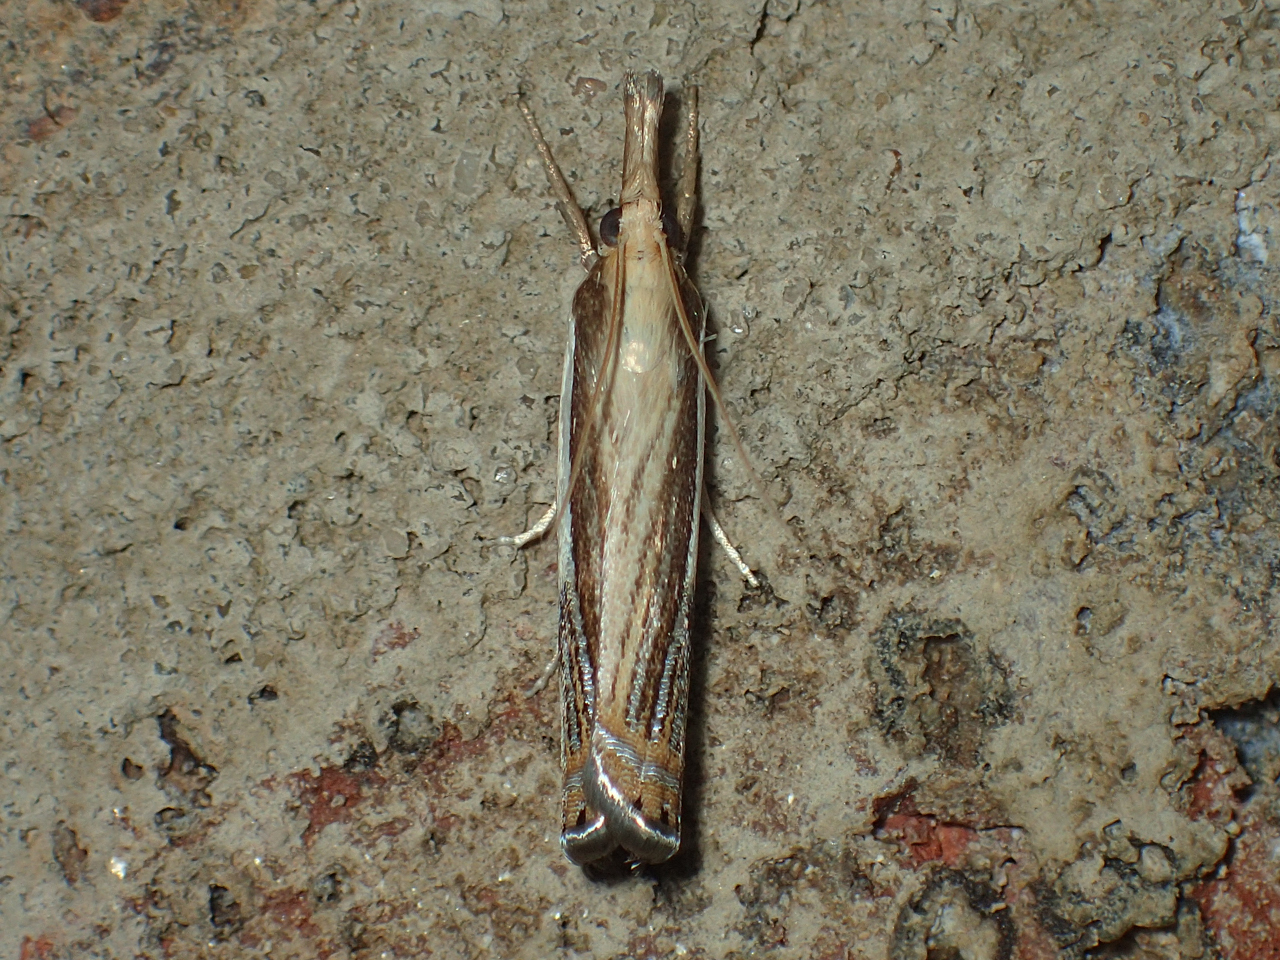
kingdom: Animalia
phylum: Arthropoda
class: Insecta
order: Lepidoptera
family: Crambidae
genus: Crambus
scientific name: Crambus
